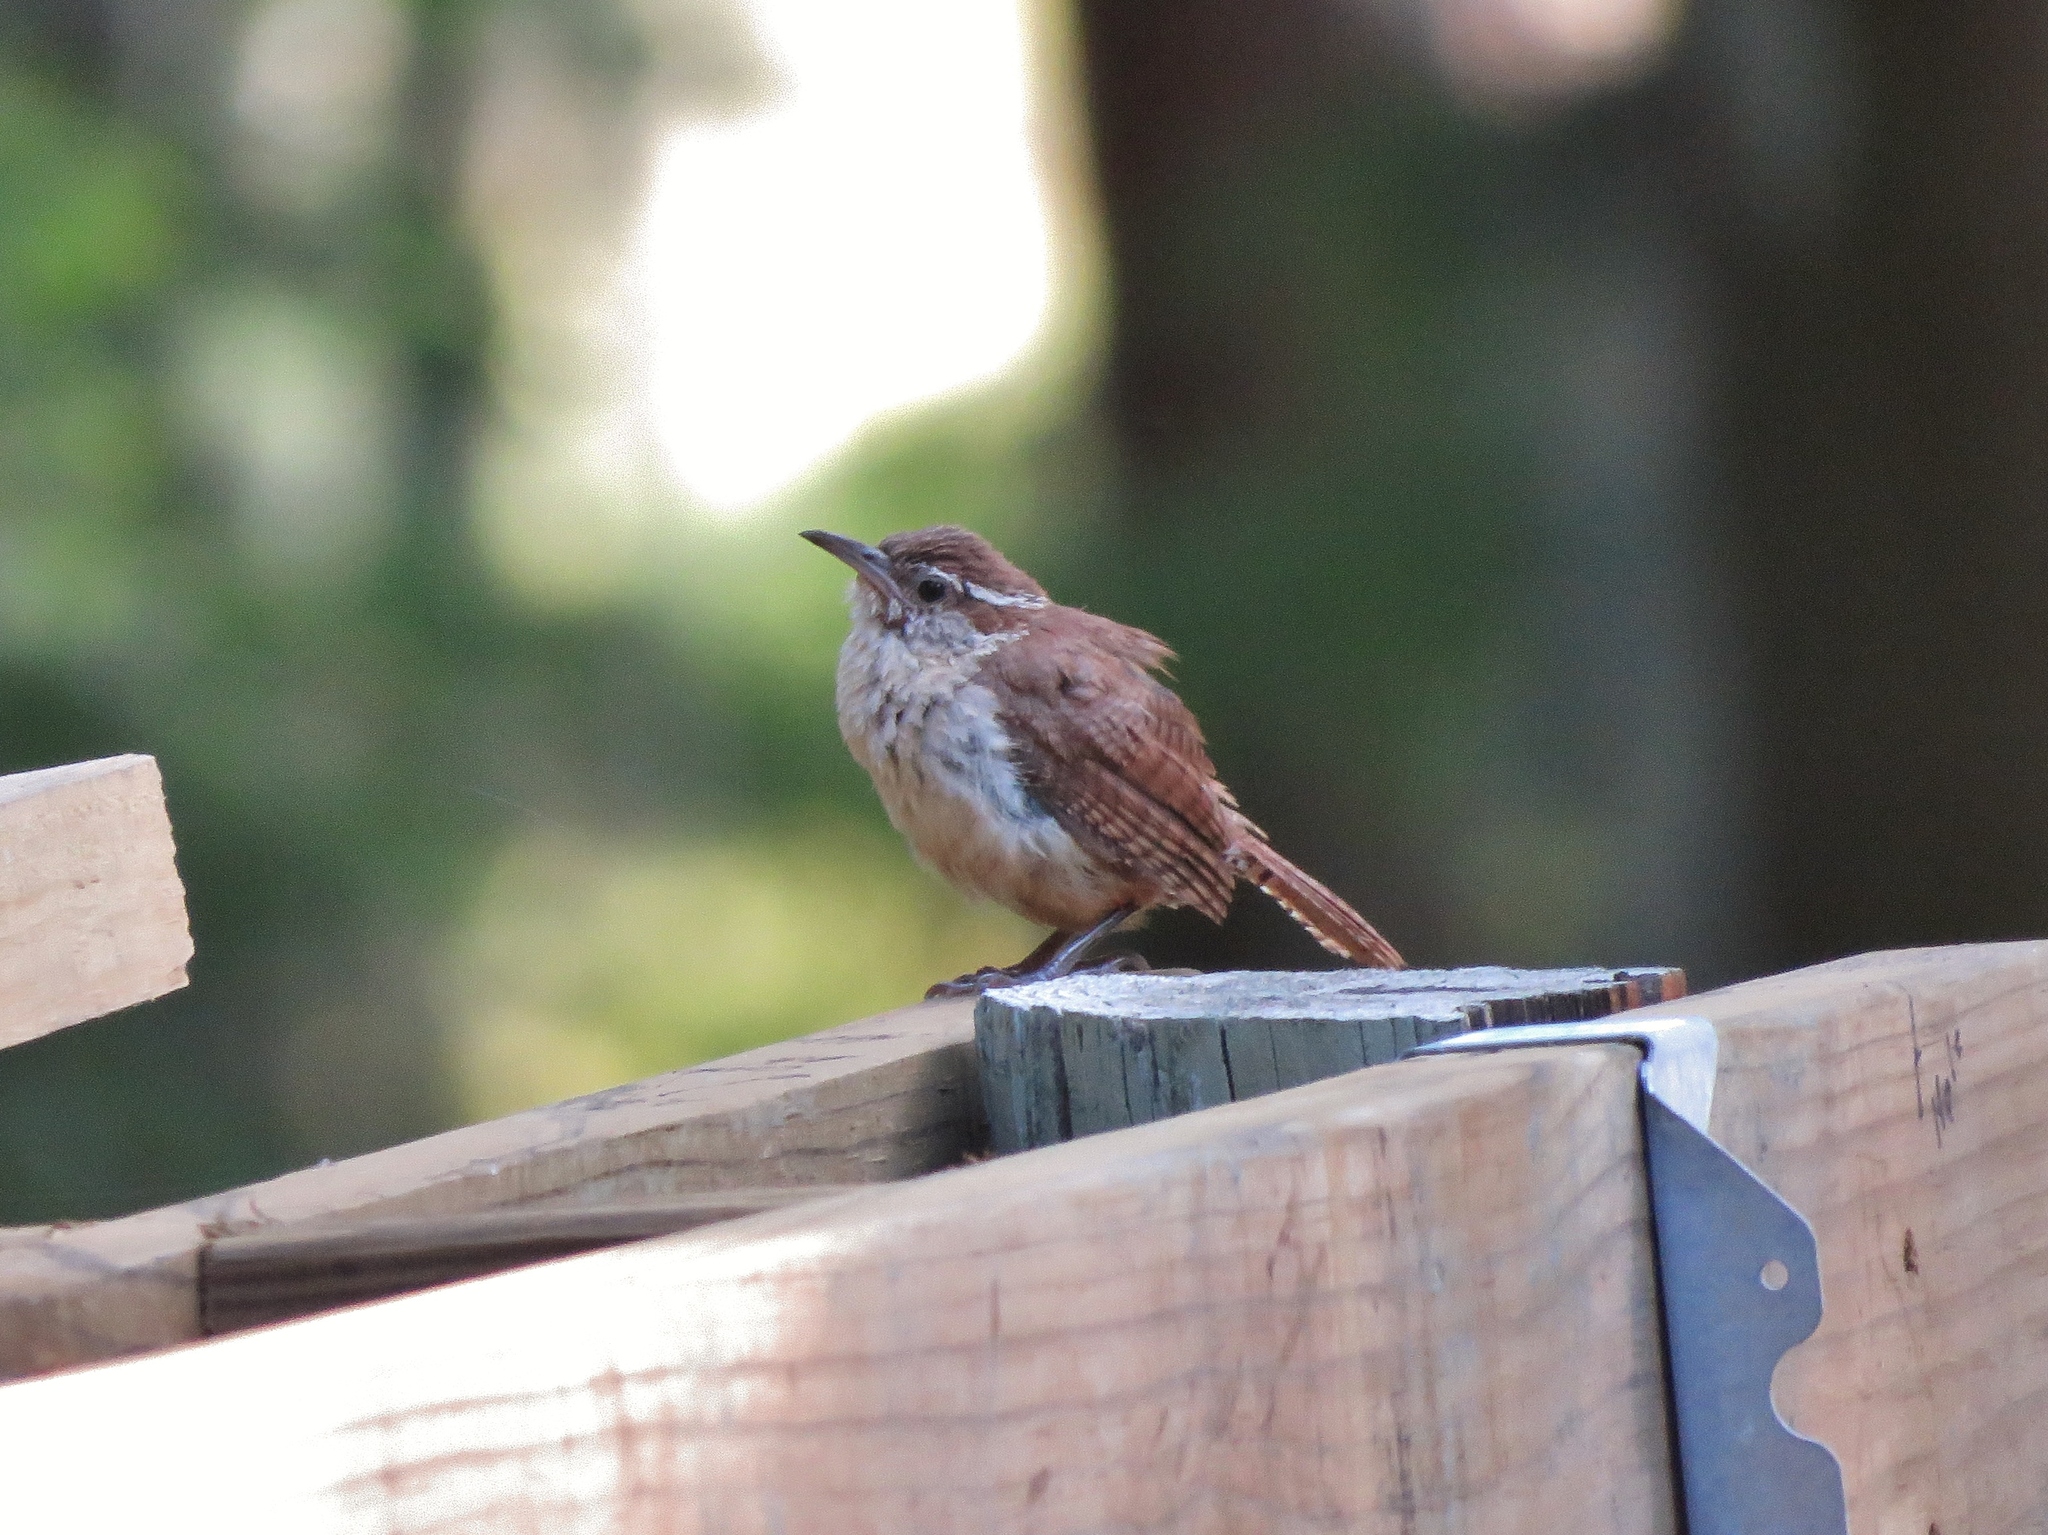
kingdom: Animalia
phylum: Chordata
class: Aves
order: Passeriformes
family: Troglodytidae
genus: Thryothorus
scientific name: Thryothorus ludovicianus
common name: Carolina wren
